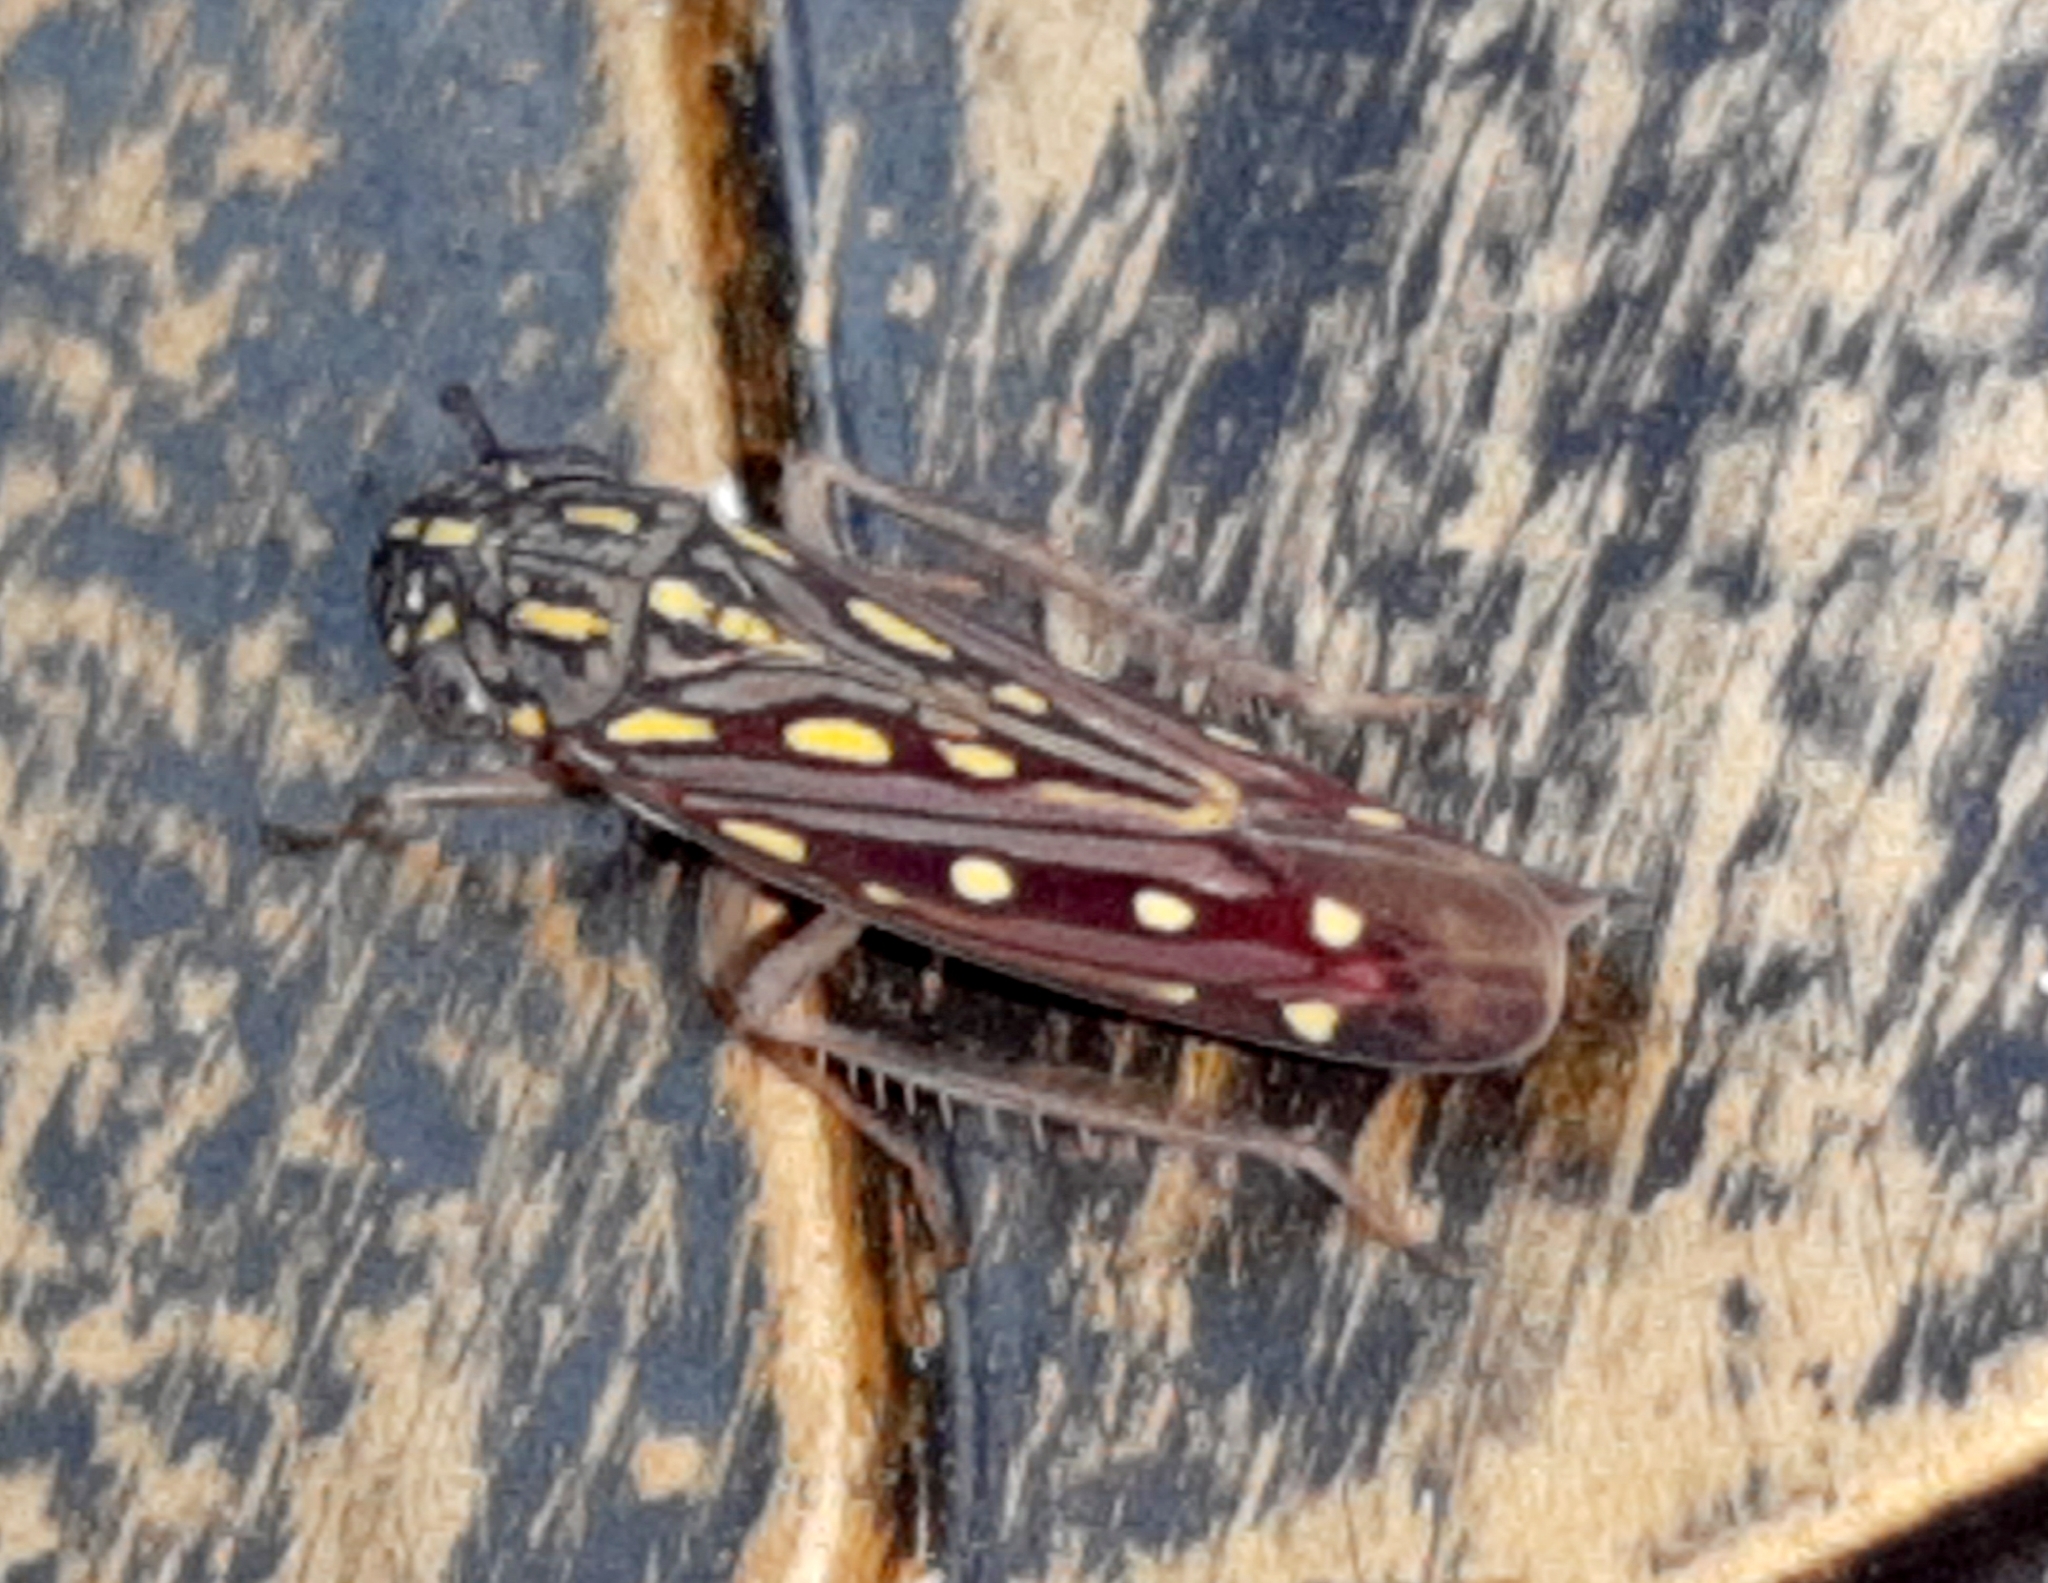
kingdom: Animalia
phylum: Arthropoda
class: Insecta
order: Hemiptera
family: Cicadellidae
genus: Apogonalia
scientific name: Apogonalia albidonotata
